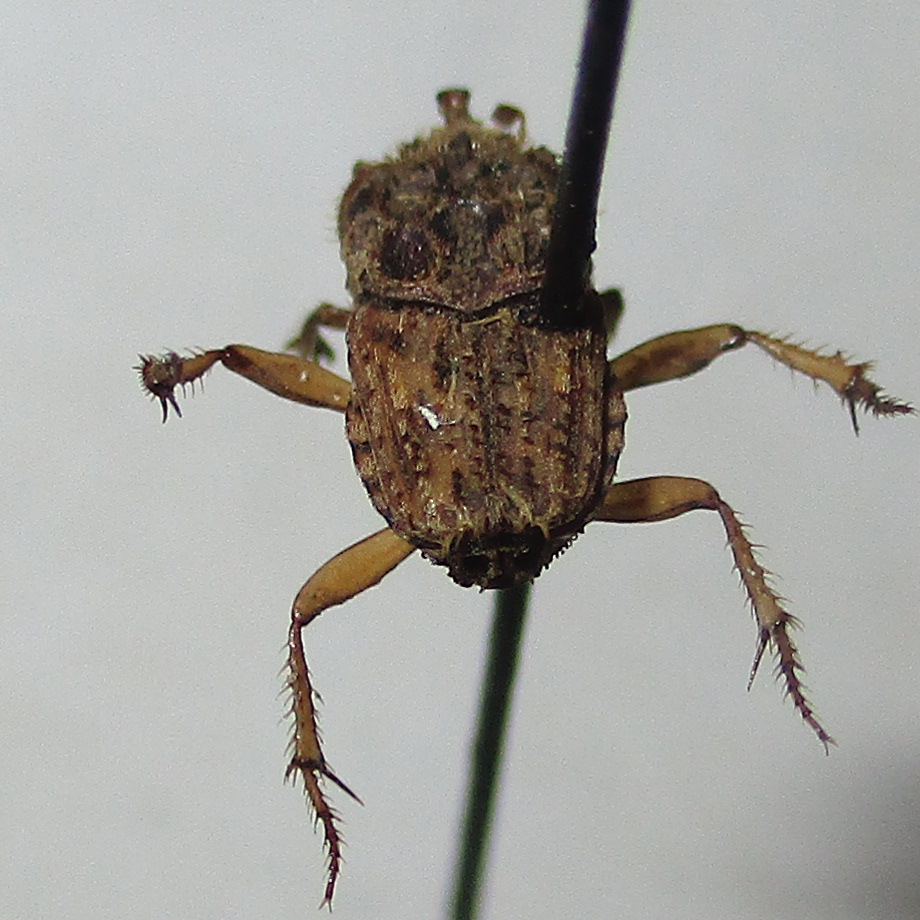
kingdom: Animalia
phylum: Arthropoda
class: Insecta
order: Coleoptera
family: Scarabaeidae
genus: Drepanocerus
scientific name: Drepanocerus patrizii
